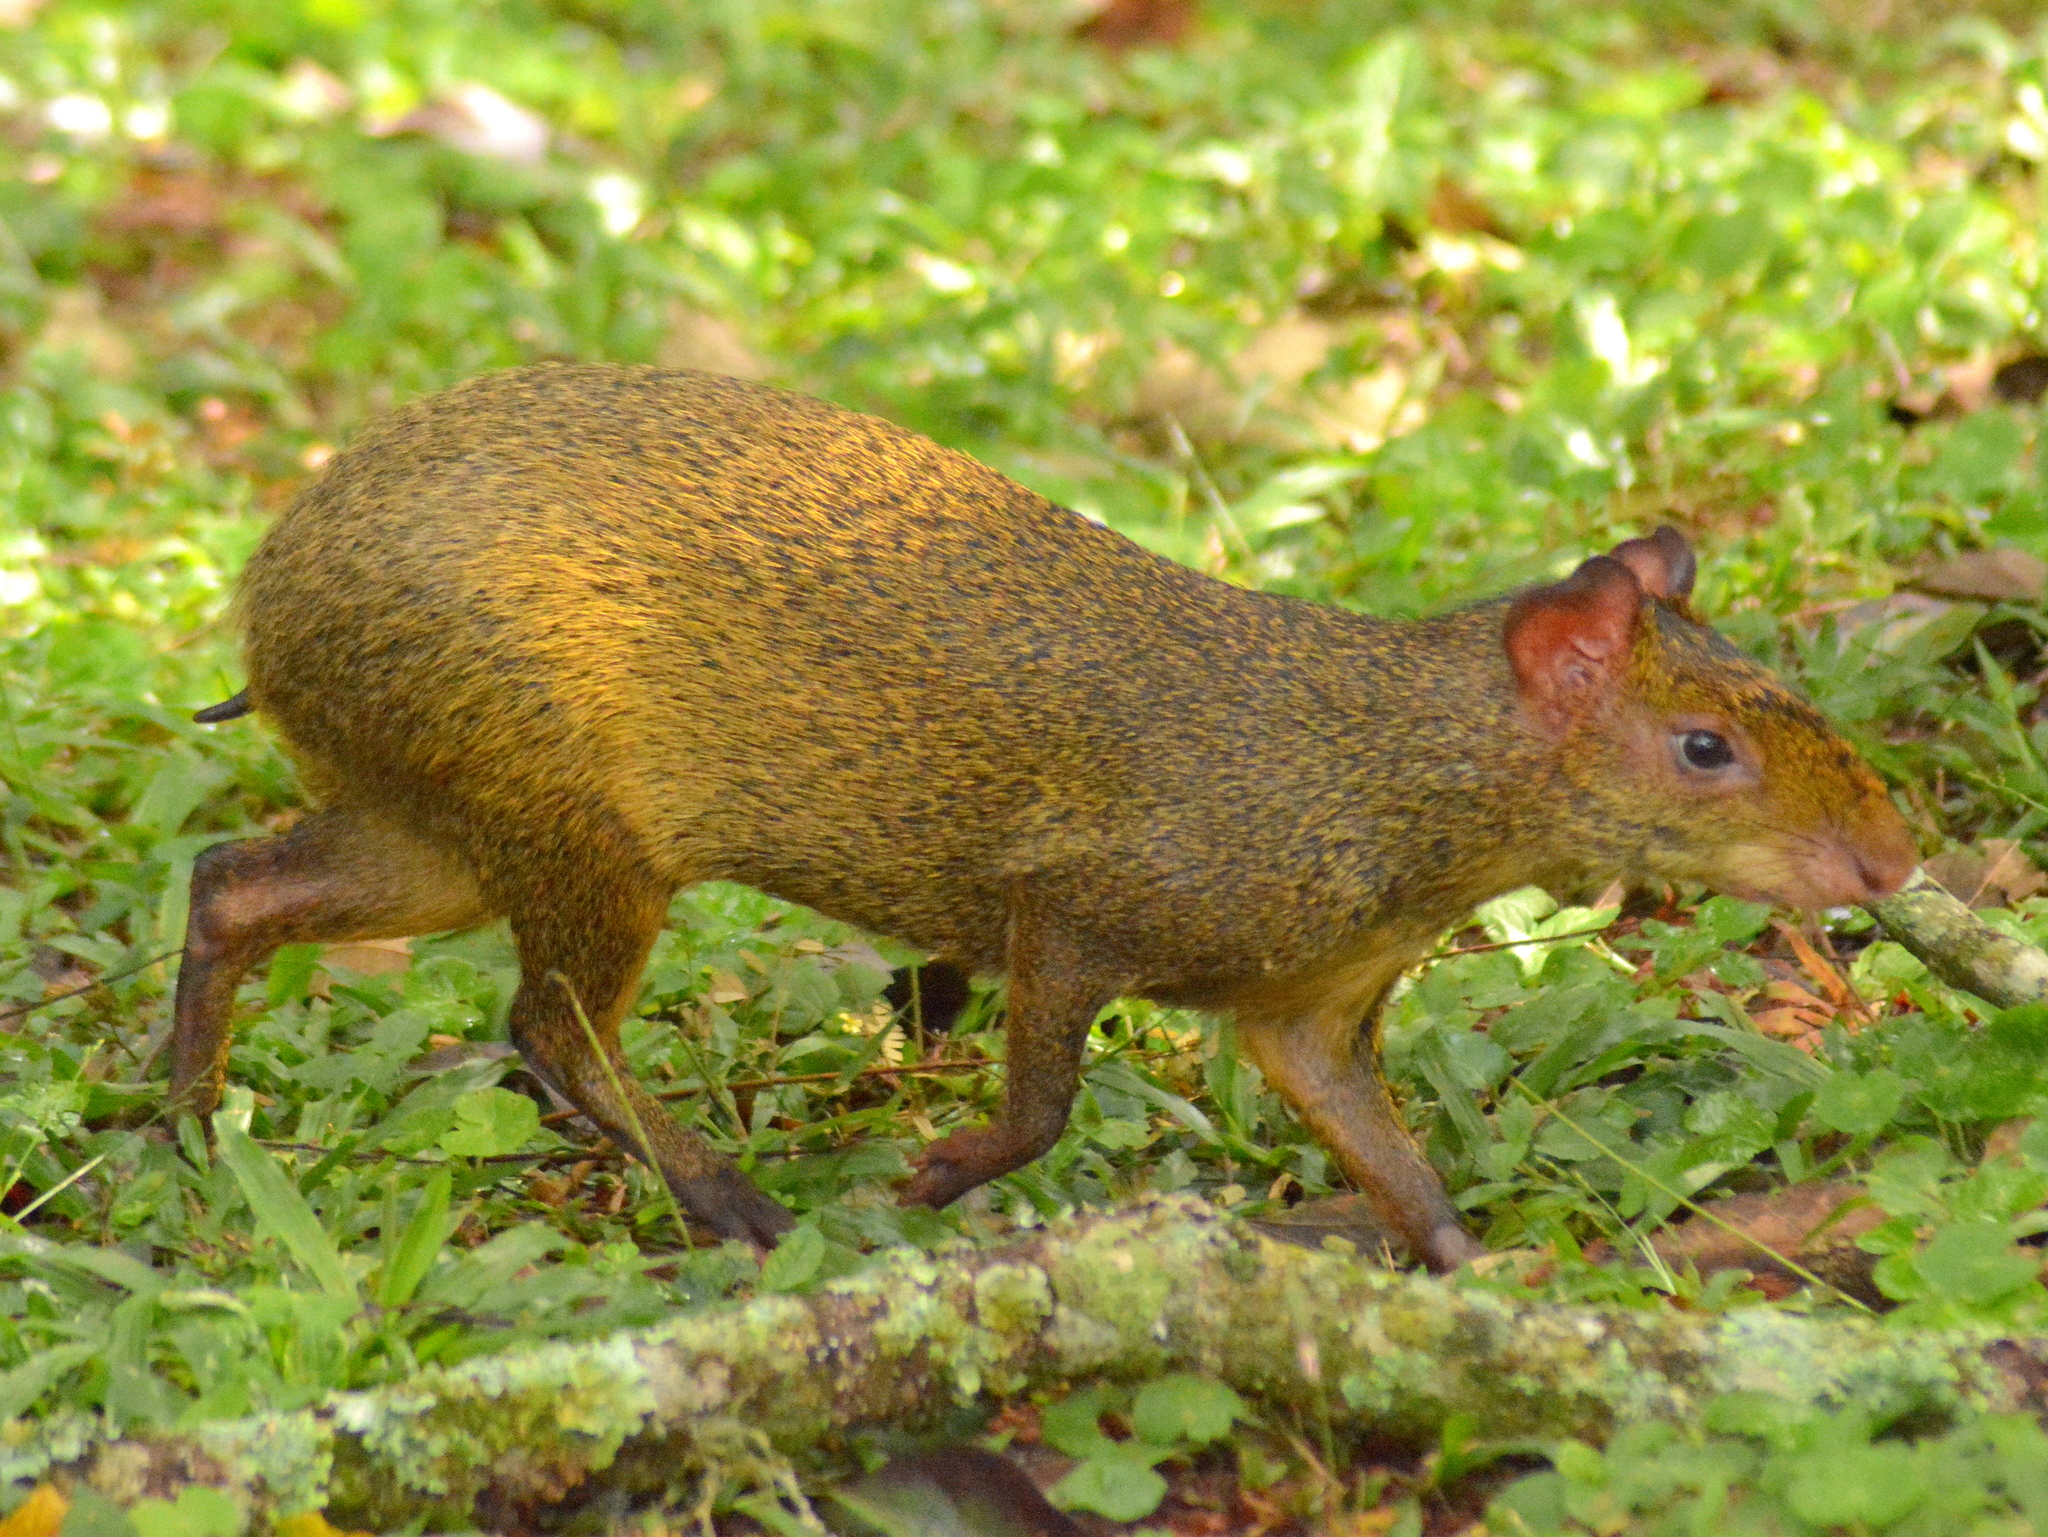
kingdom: Animalia
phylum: Chordata
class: Mammalia
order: Rodentia
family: Dasyproctidae
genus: Dasyprocta
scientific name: Dasyprocta azarae
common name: Azara's agouti
